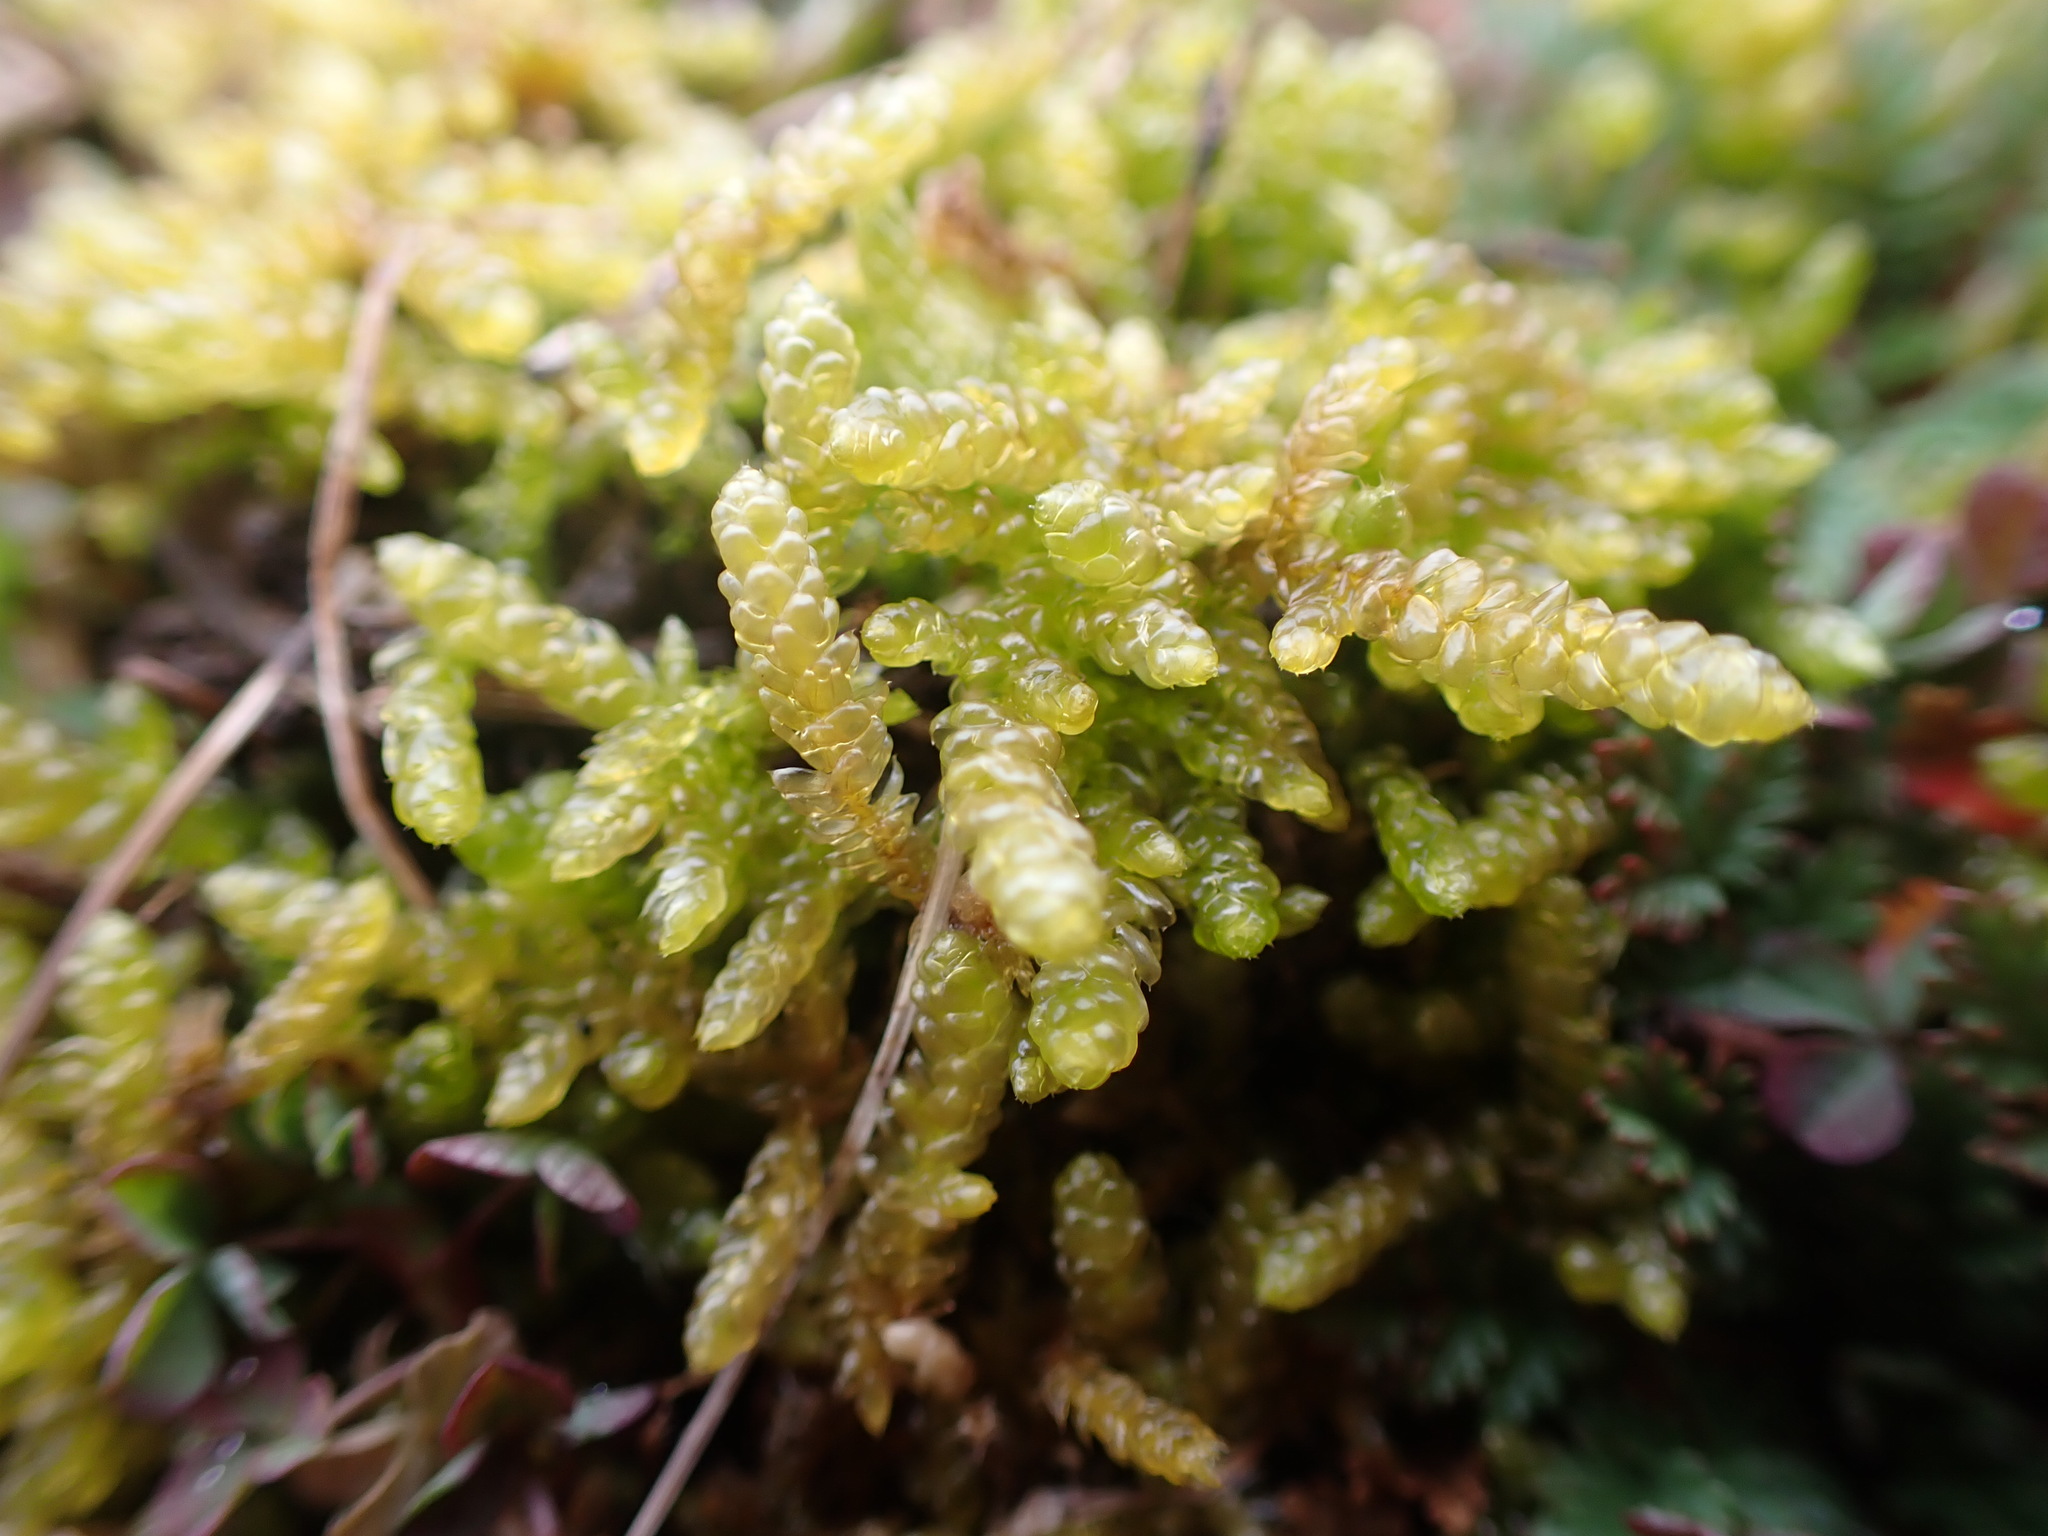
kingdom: Plantae
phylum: Bryophyta
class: Bryopsida
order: Hypnales
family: Brachytheciaceae
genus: Pseudoscleropodium
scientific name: Pseudoscleropodium purum
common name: Neat feather-moss
